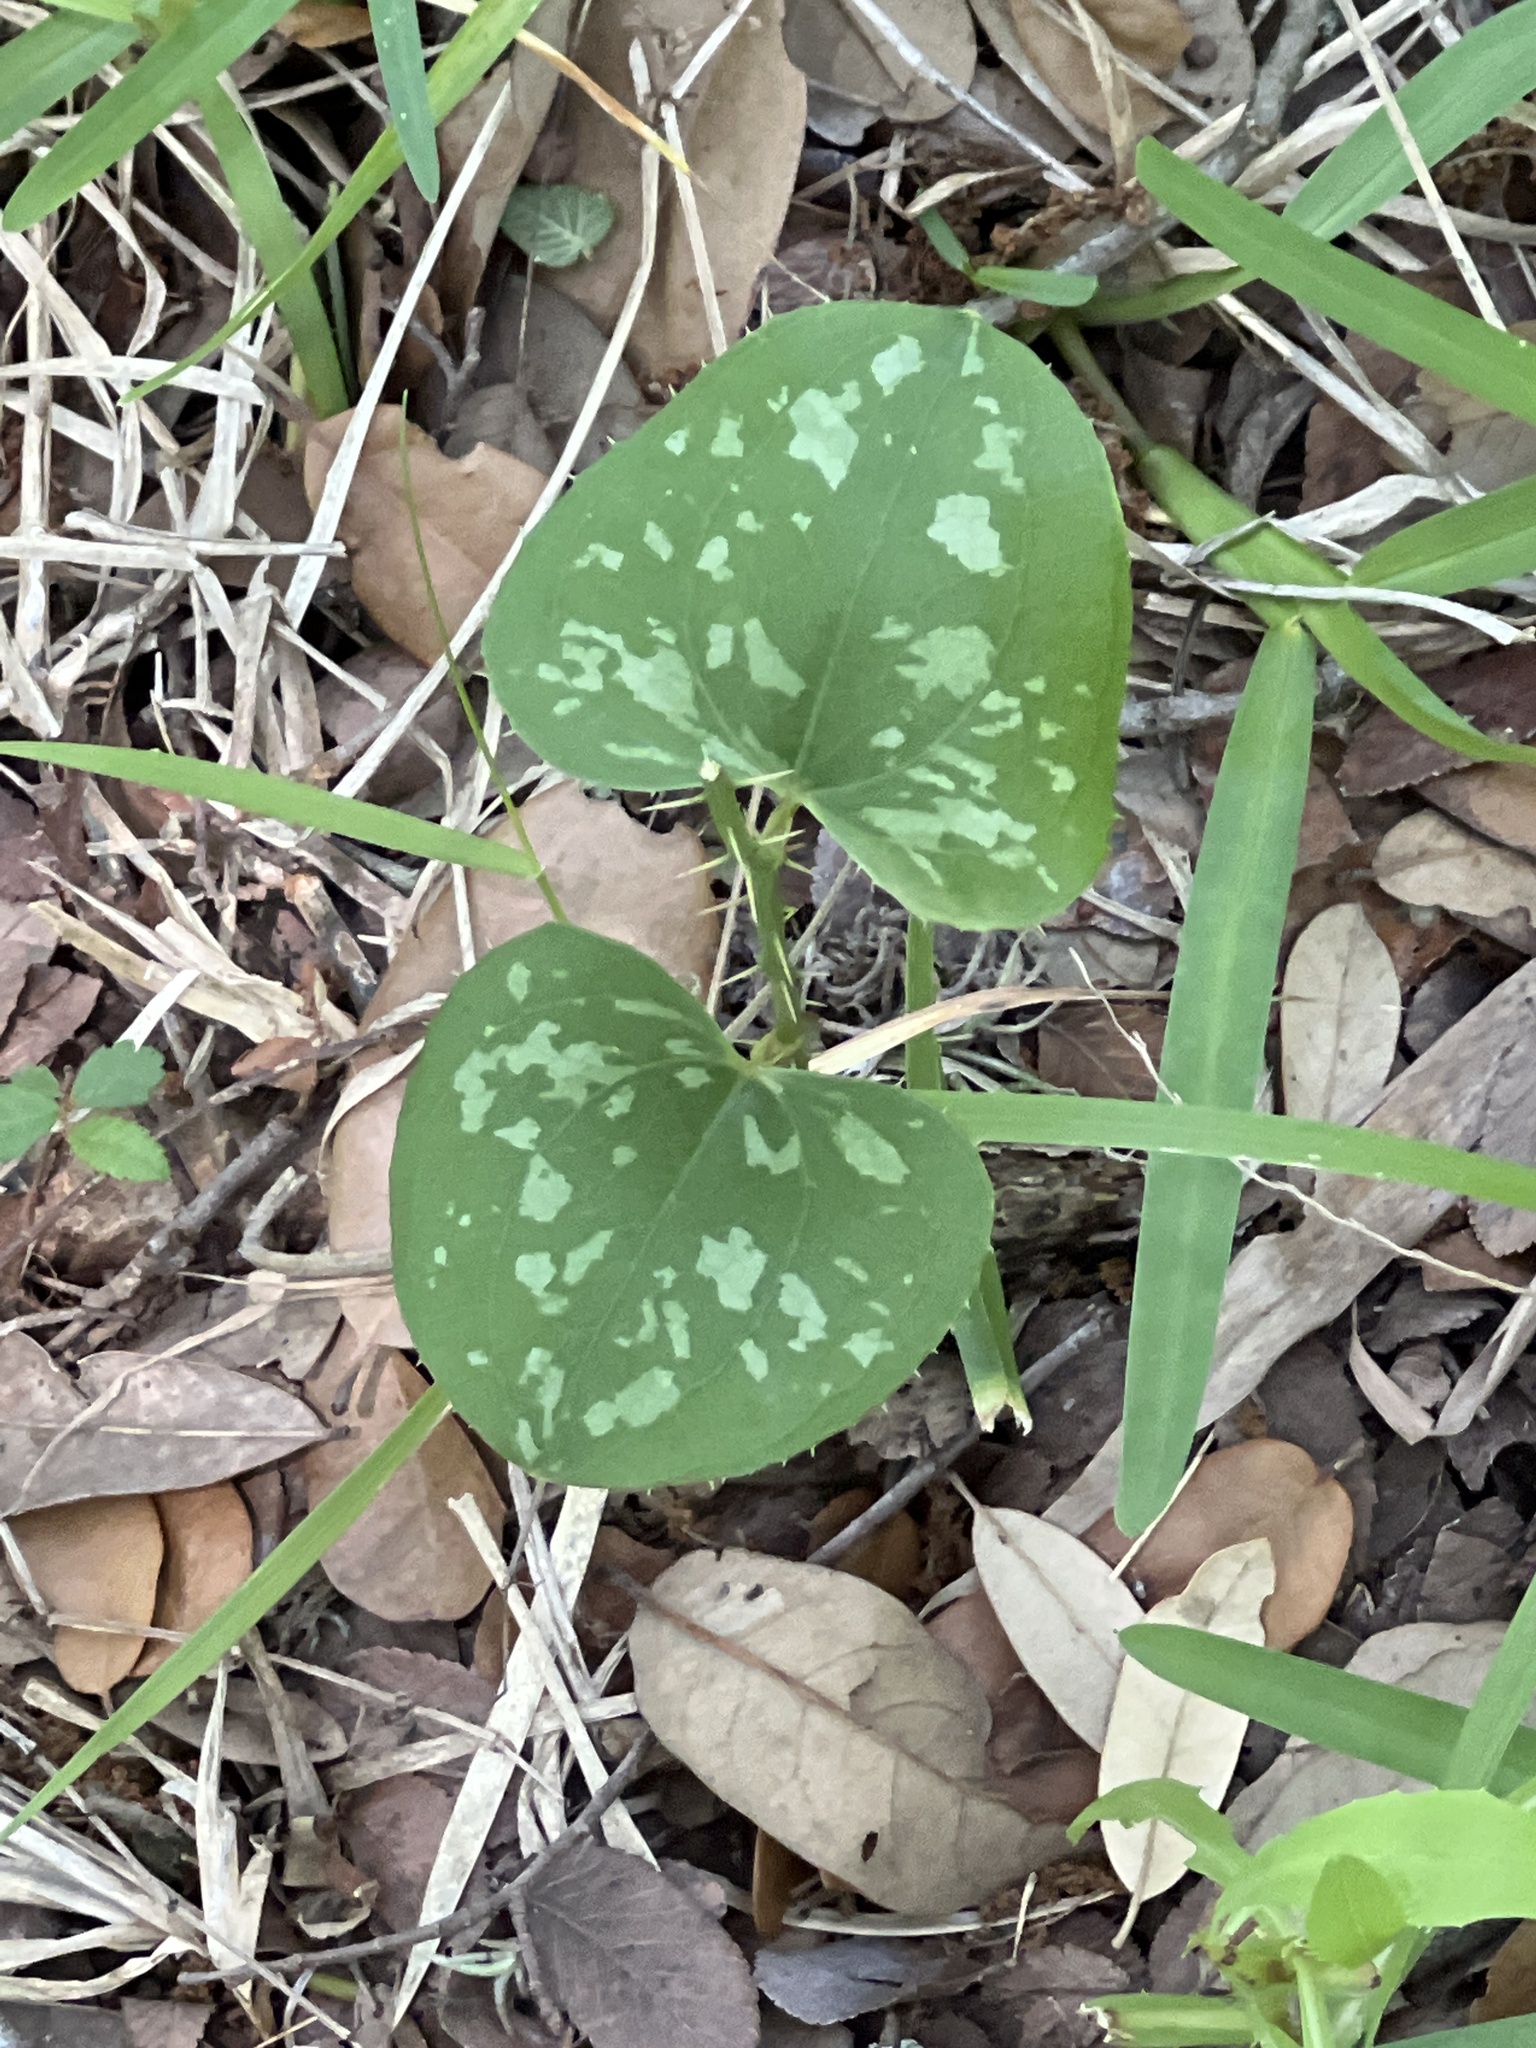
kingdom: Plantae
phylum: Tracheophyta
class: Liliopsida
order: Liliales
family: Smilacaceae
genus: Smilax
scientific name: Smilax bona-nox
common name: Catbrier
